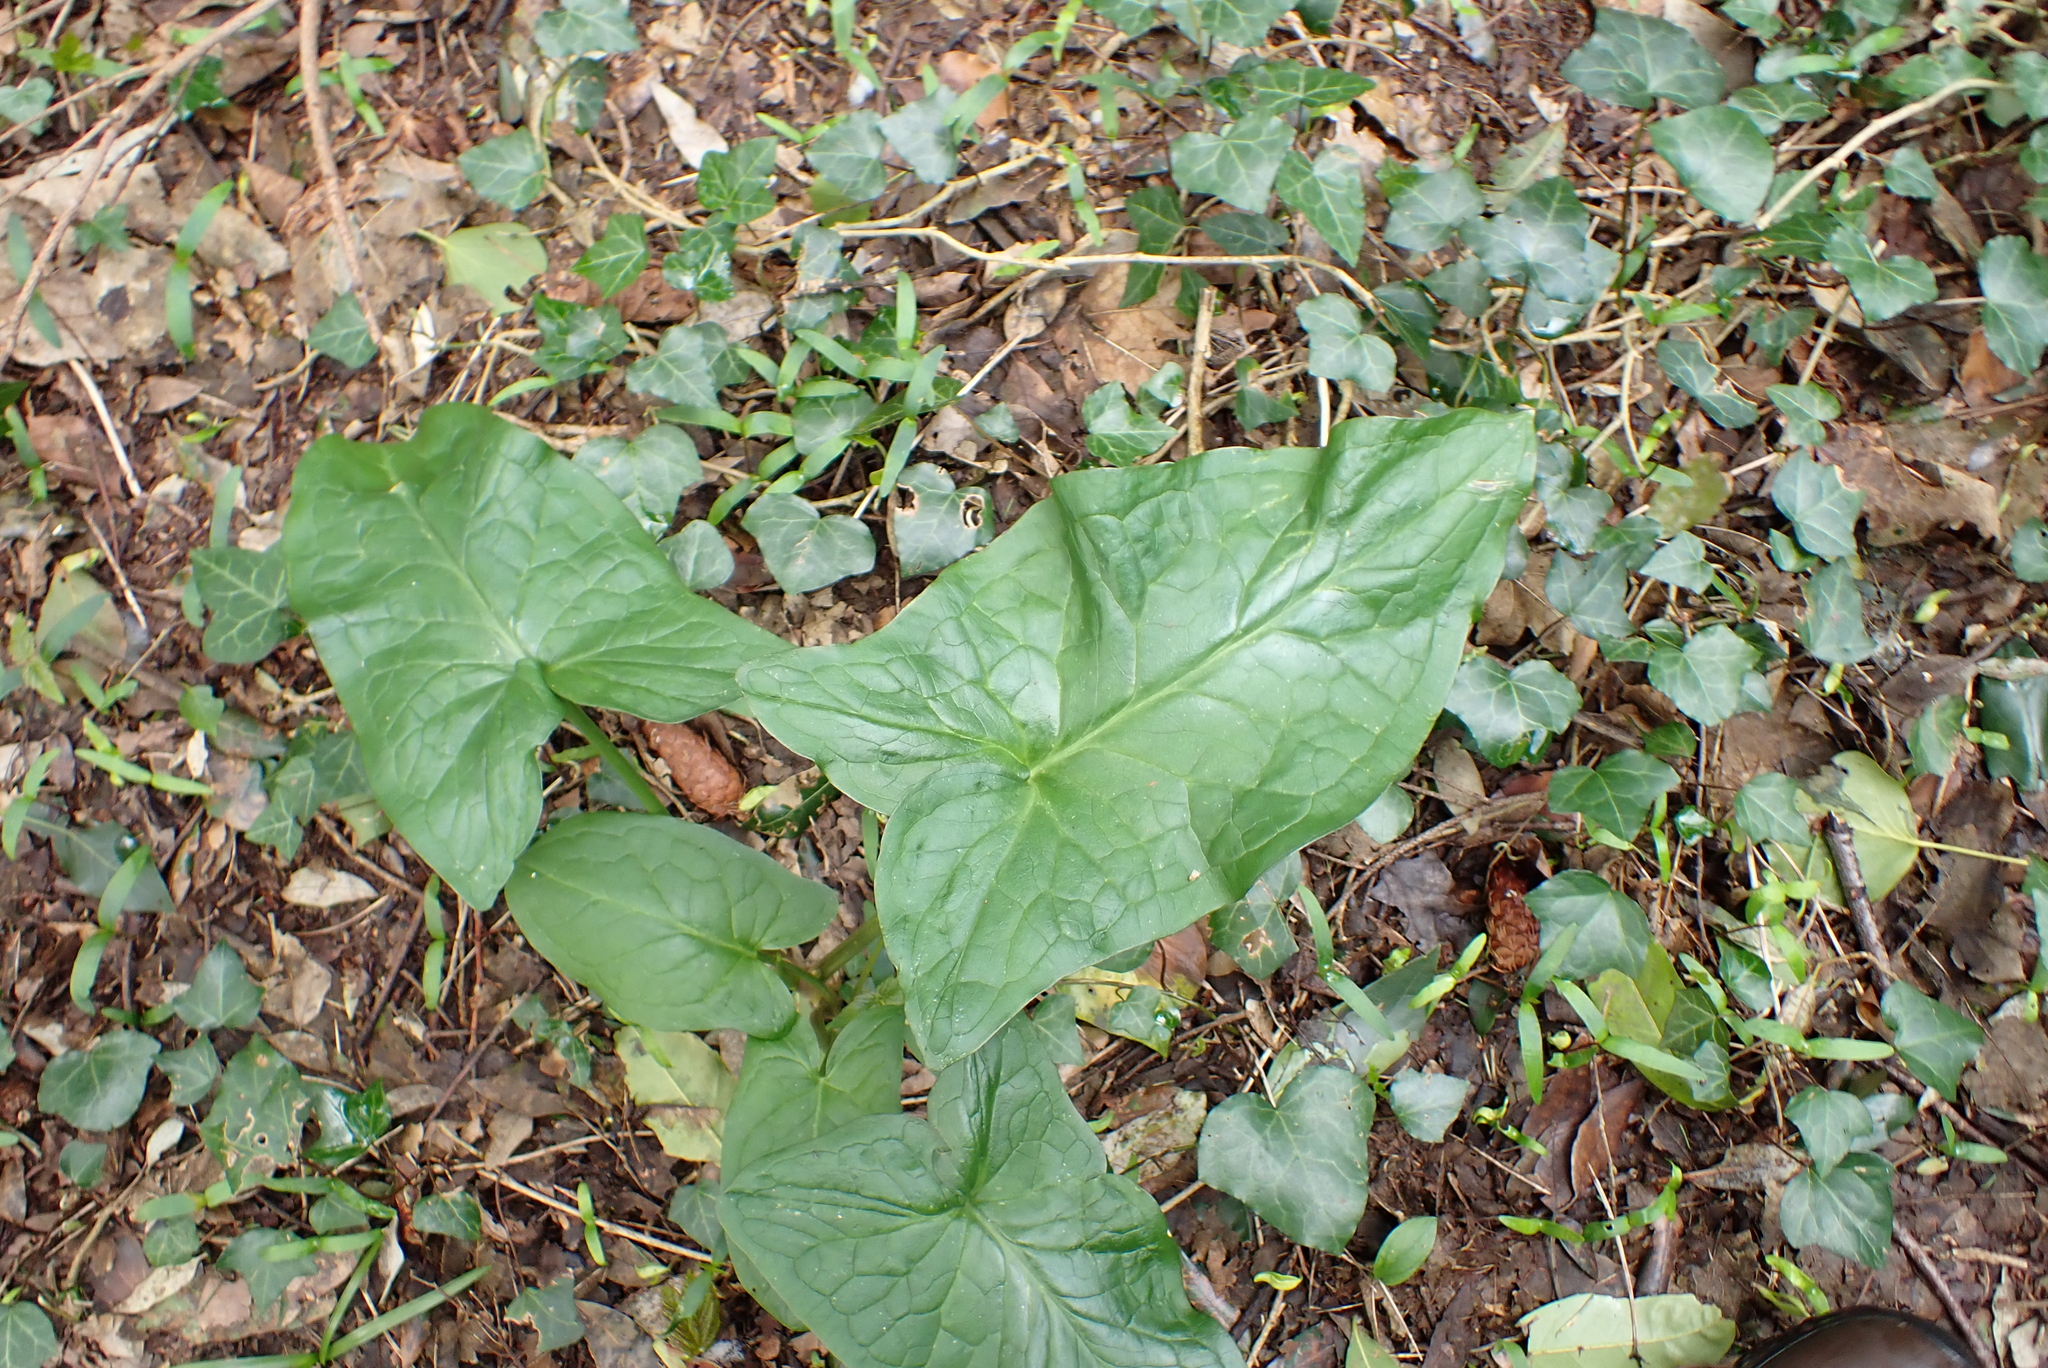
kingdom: Plantae
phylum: Tracheophyta
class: Liliopsida
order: Alismatales
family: Araceae
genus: Arum
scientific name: Arum maculatum
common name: Lords-and-ladies
